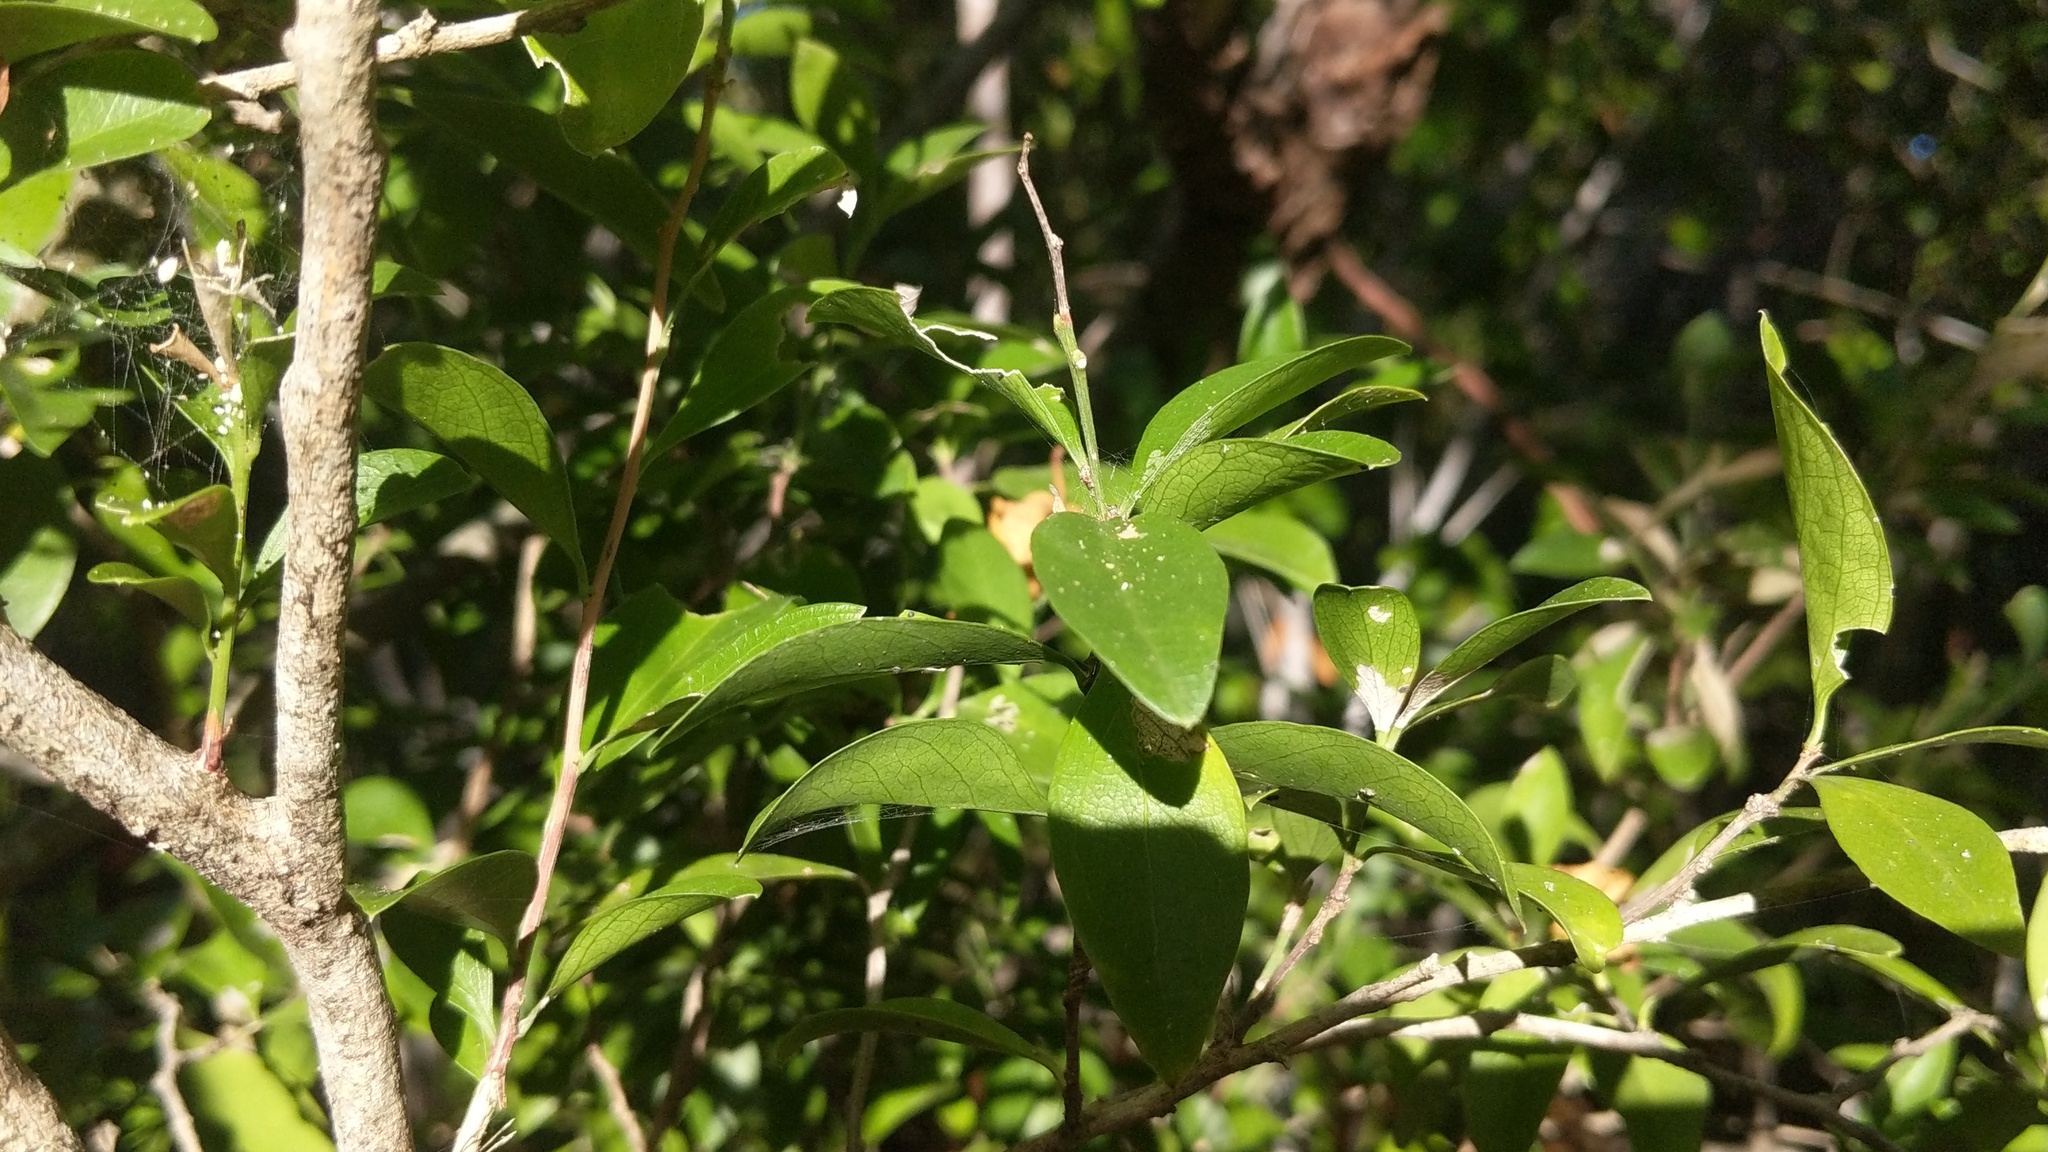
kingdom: Plantae
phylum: Tracheophyta
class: Magnoliopsida
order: Celastrales
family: Celastraceae
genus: Schaefferia
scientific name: Schaefferia frutescens
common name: Boxwood
